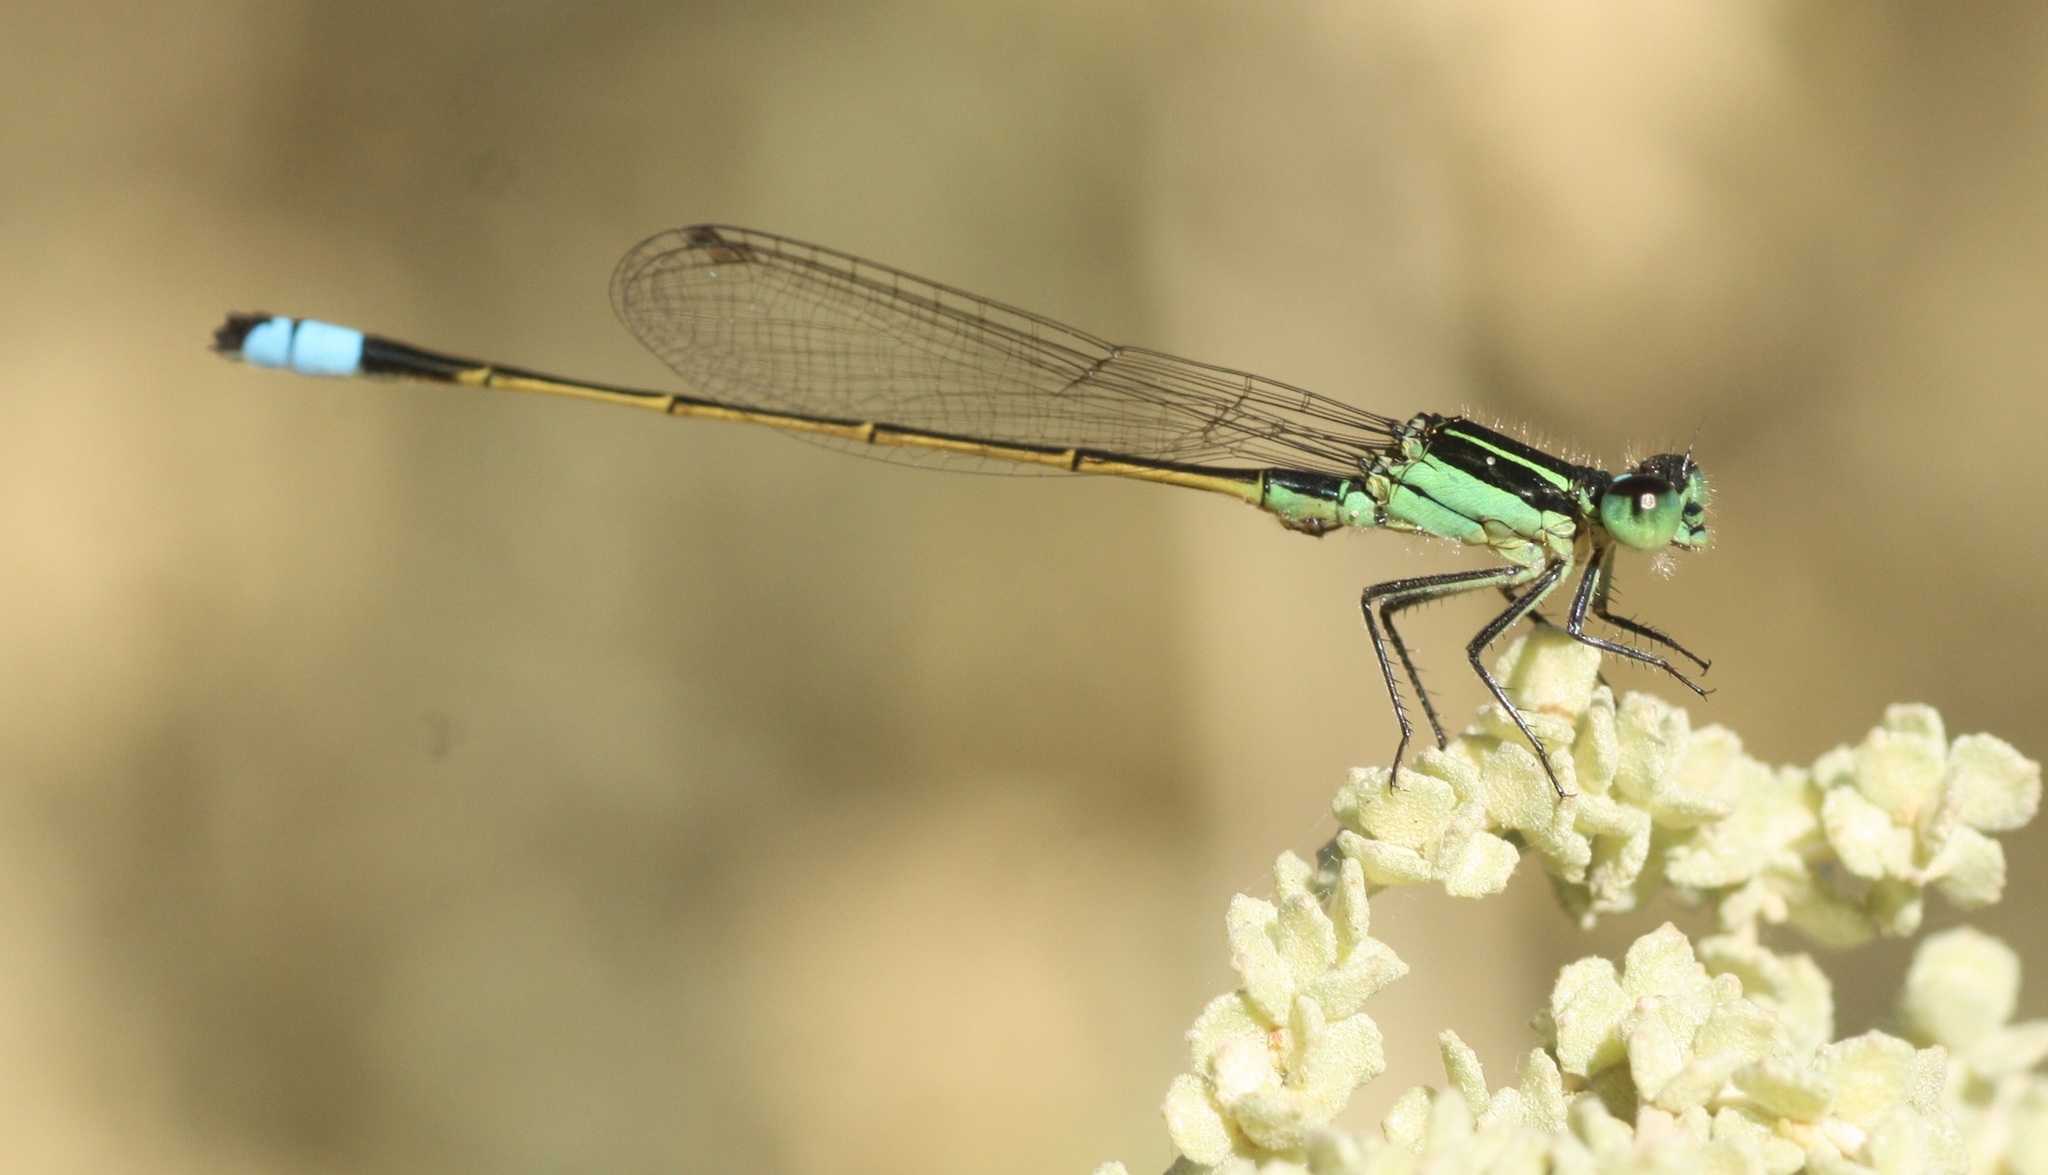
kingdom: Animalia
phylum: Arthropoda
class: Insecta
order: Odonata
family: Coenagrionidae
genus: Ischnura
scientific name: Ischnura ramburii
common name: Rambur's forktail
